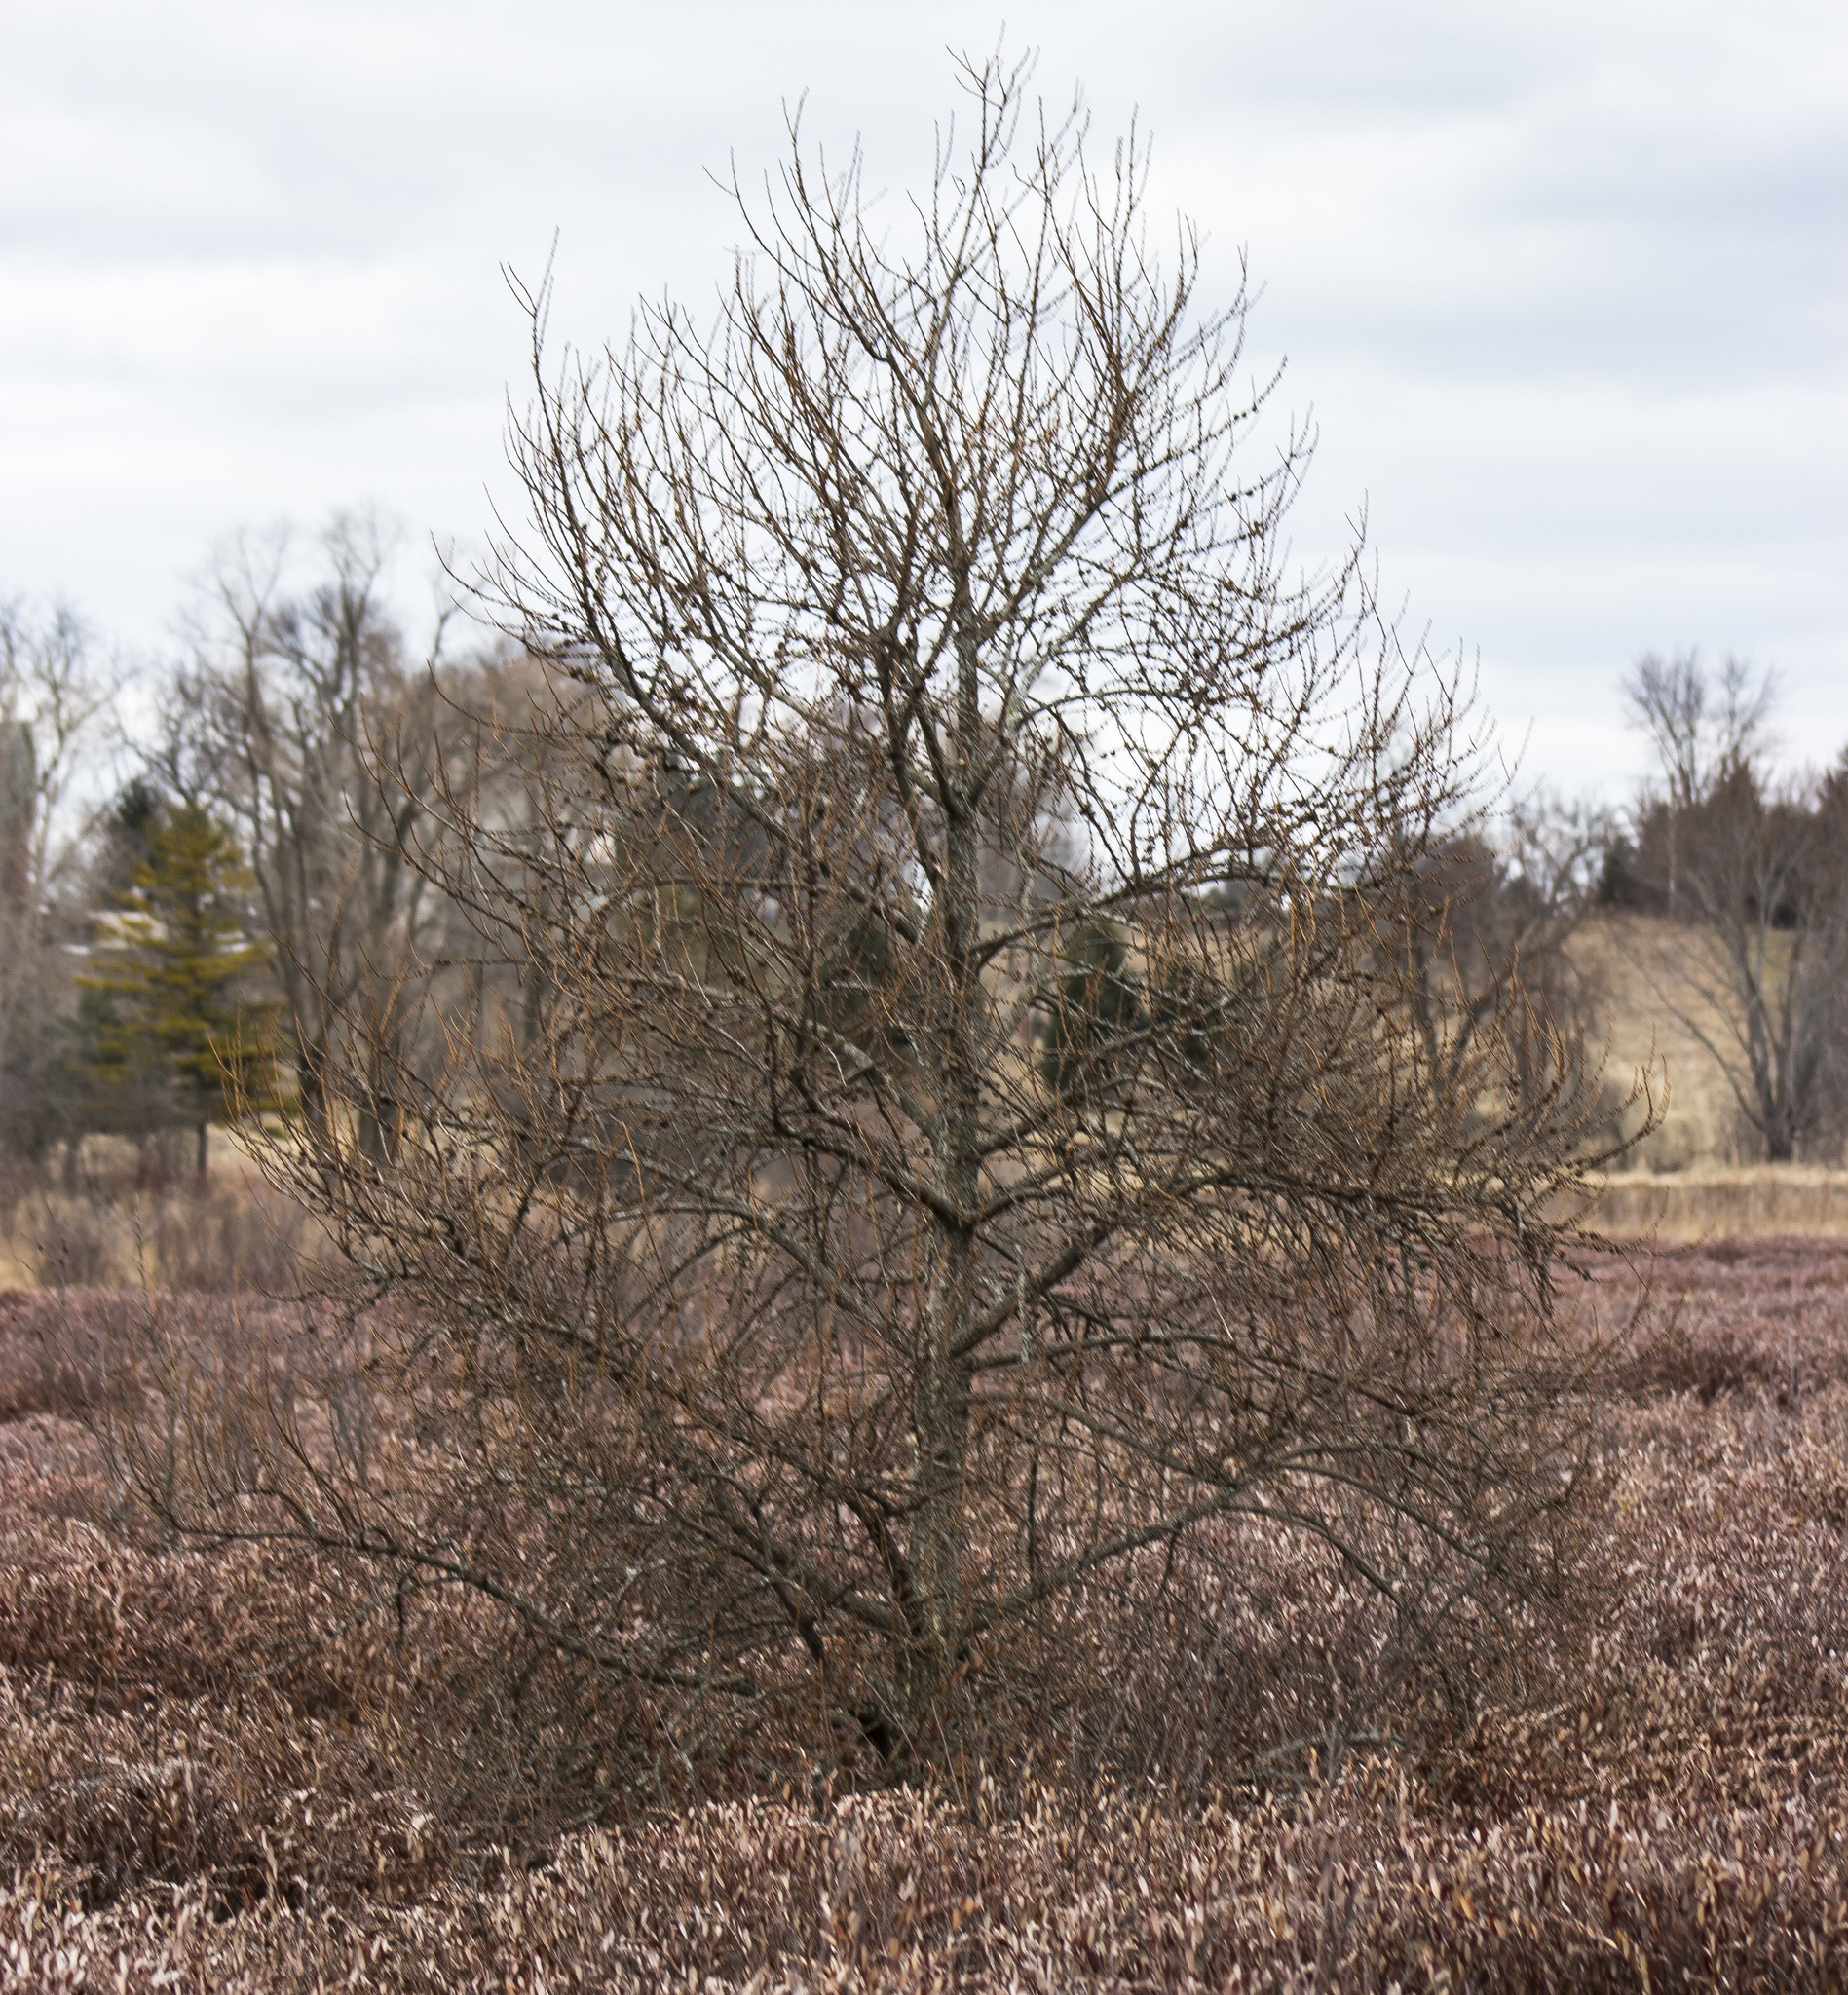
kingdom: Plantae
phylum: Tracheophyta
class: Pinopsida
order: Pinales
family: Pinaceae
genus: Larix
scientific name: Larix laricina
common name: American larch
